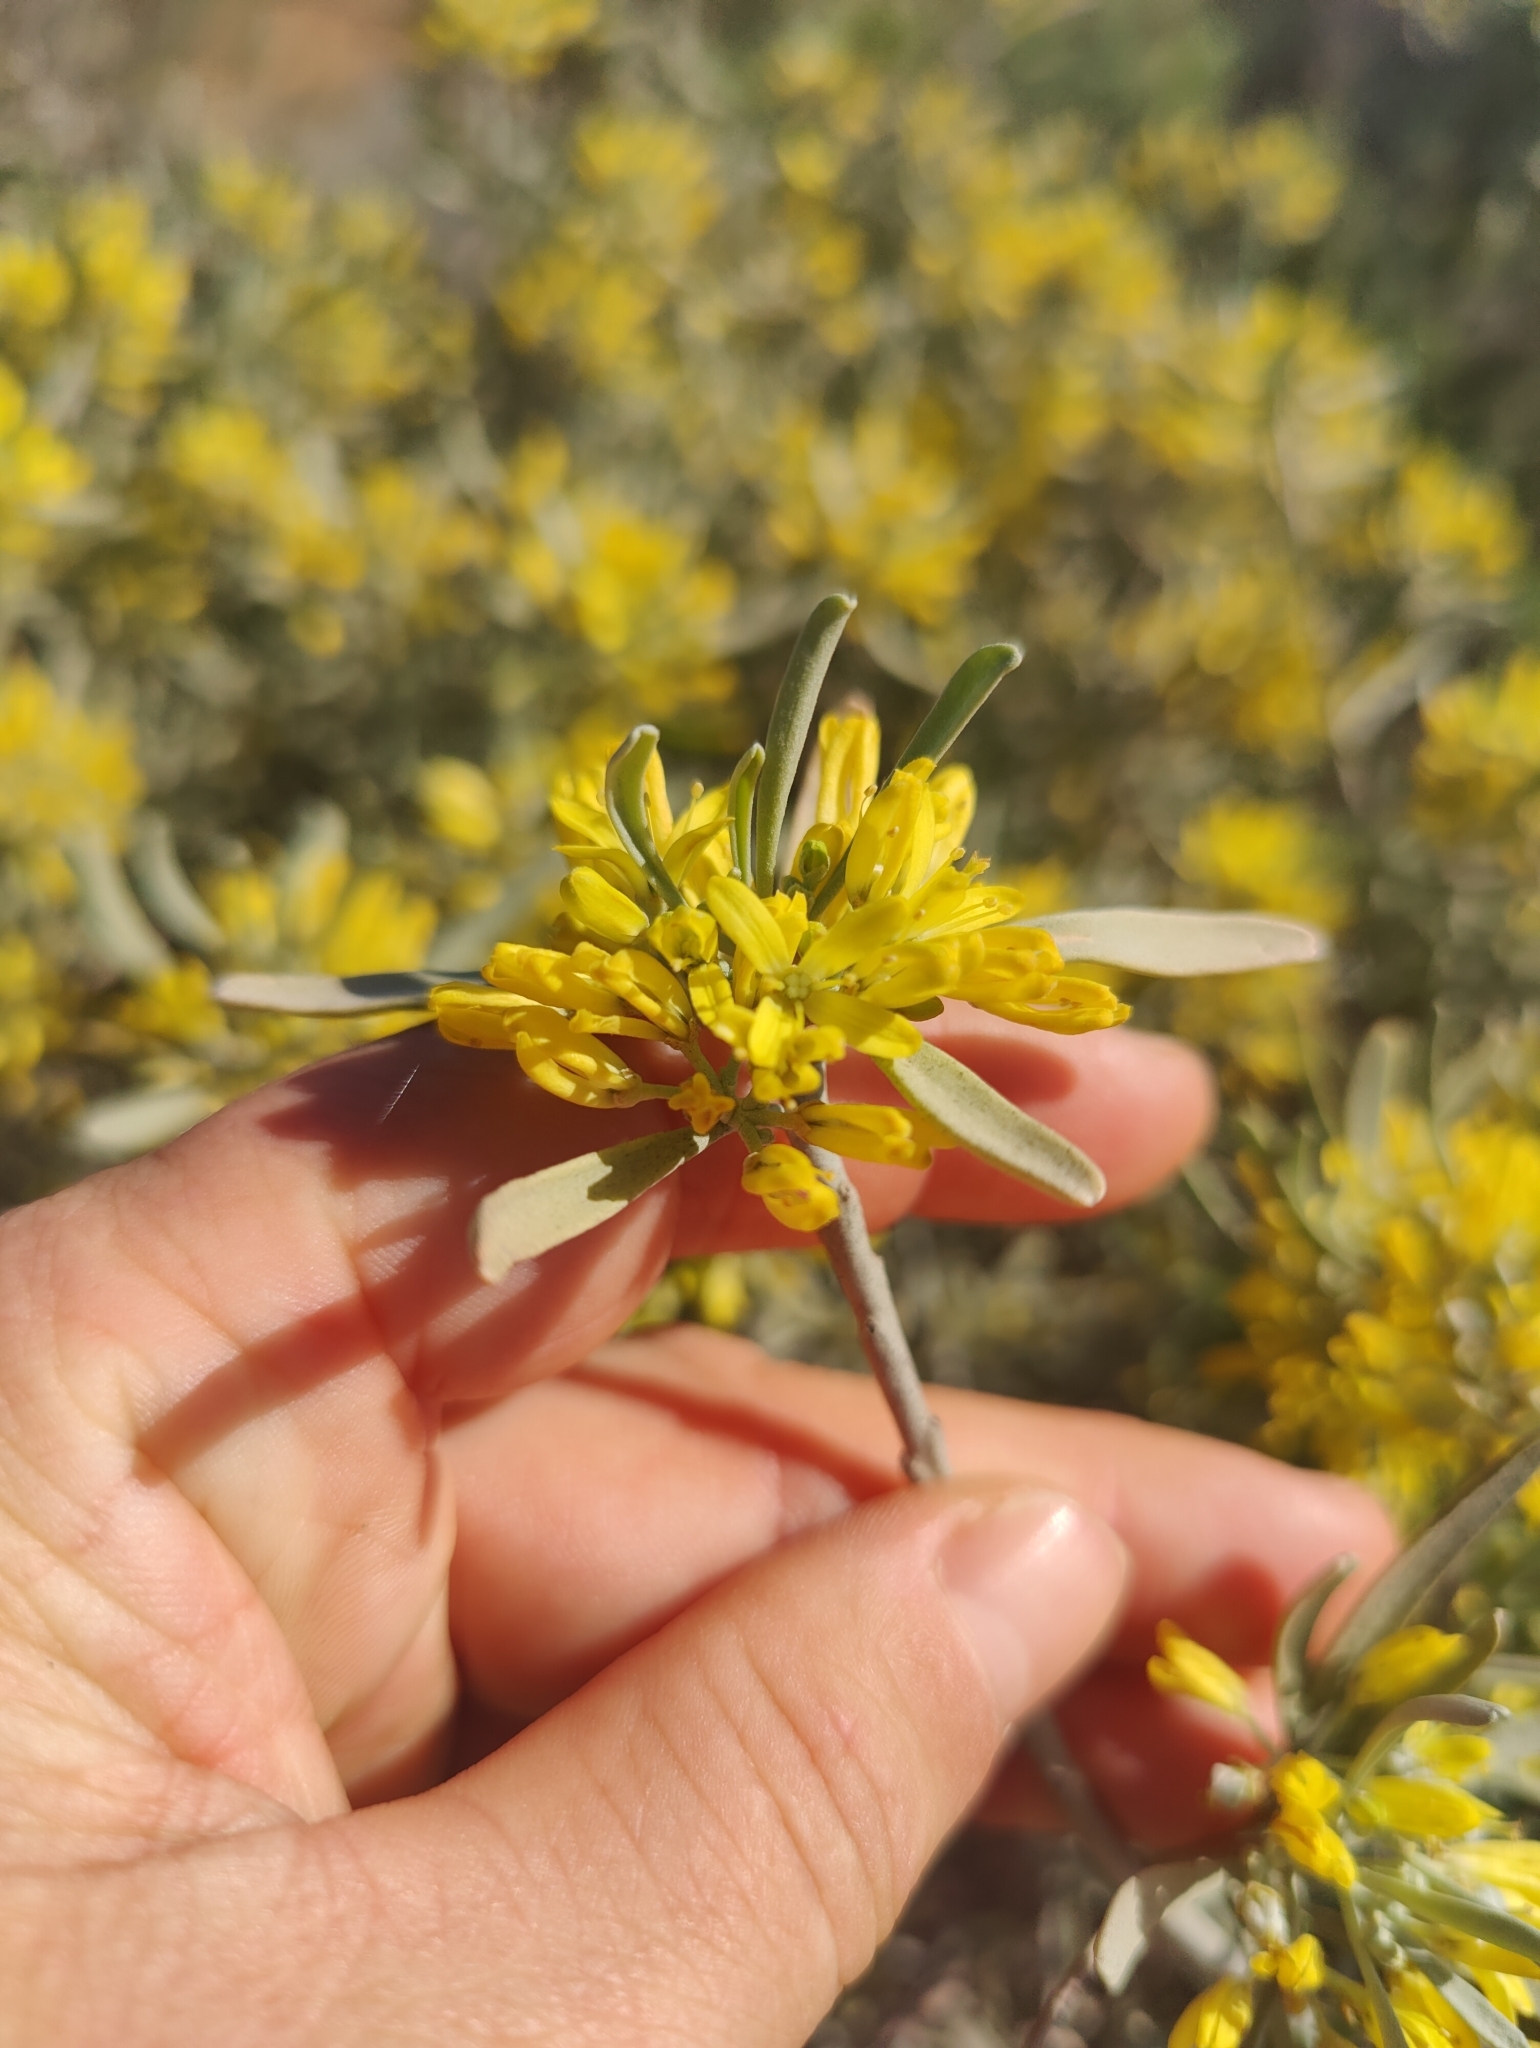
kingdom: Plantae
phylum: Tracheophyta
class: Magnoliopsida
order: Sapindales
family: Rutaceae
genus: Cneorum
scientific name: Cneorum pulverulentum
